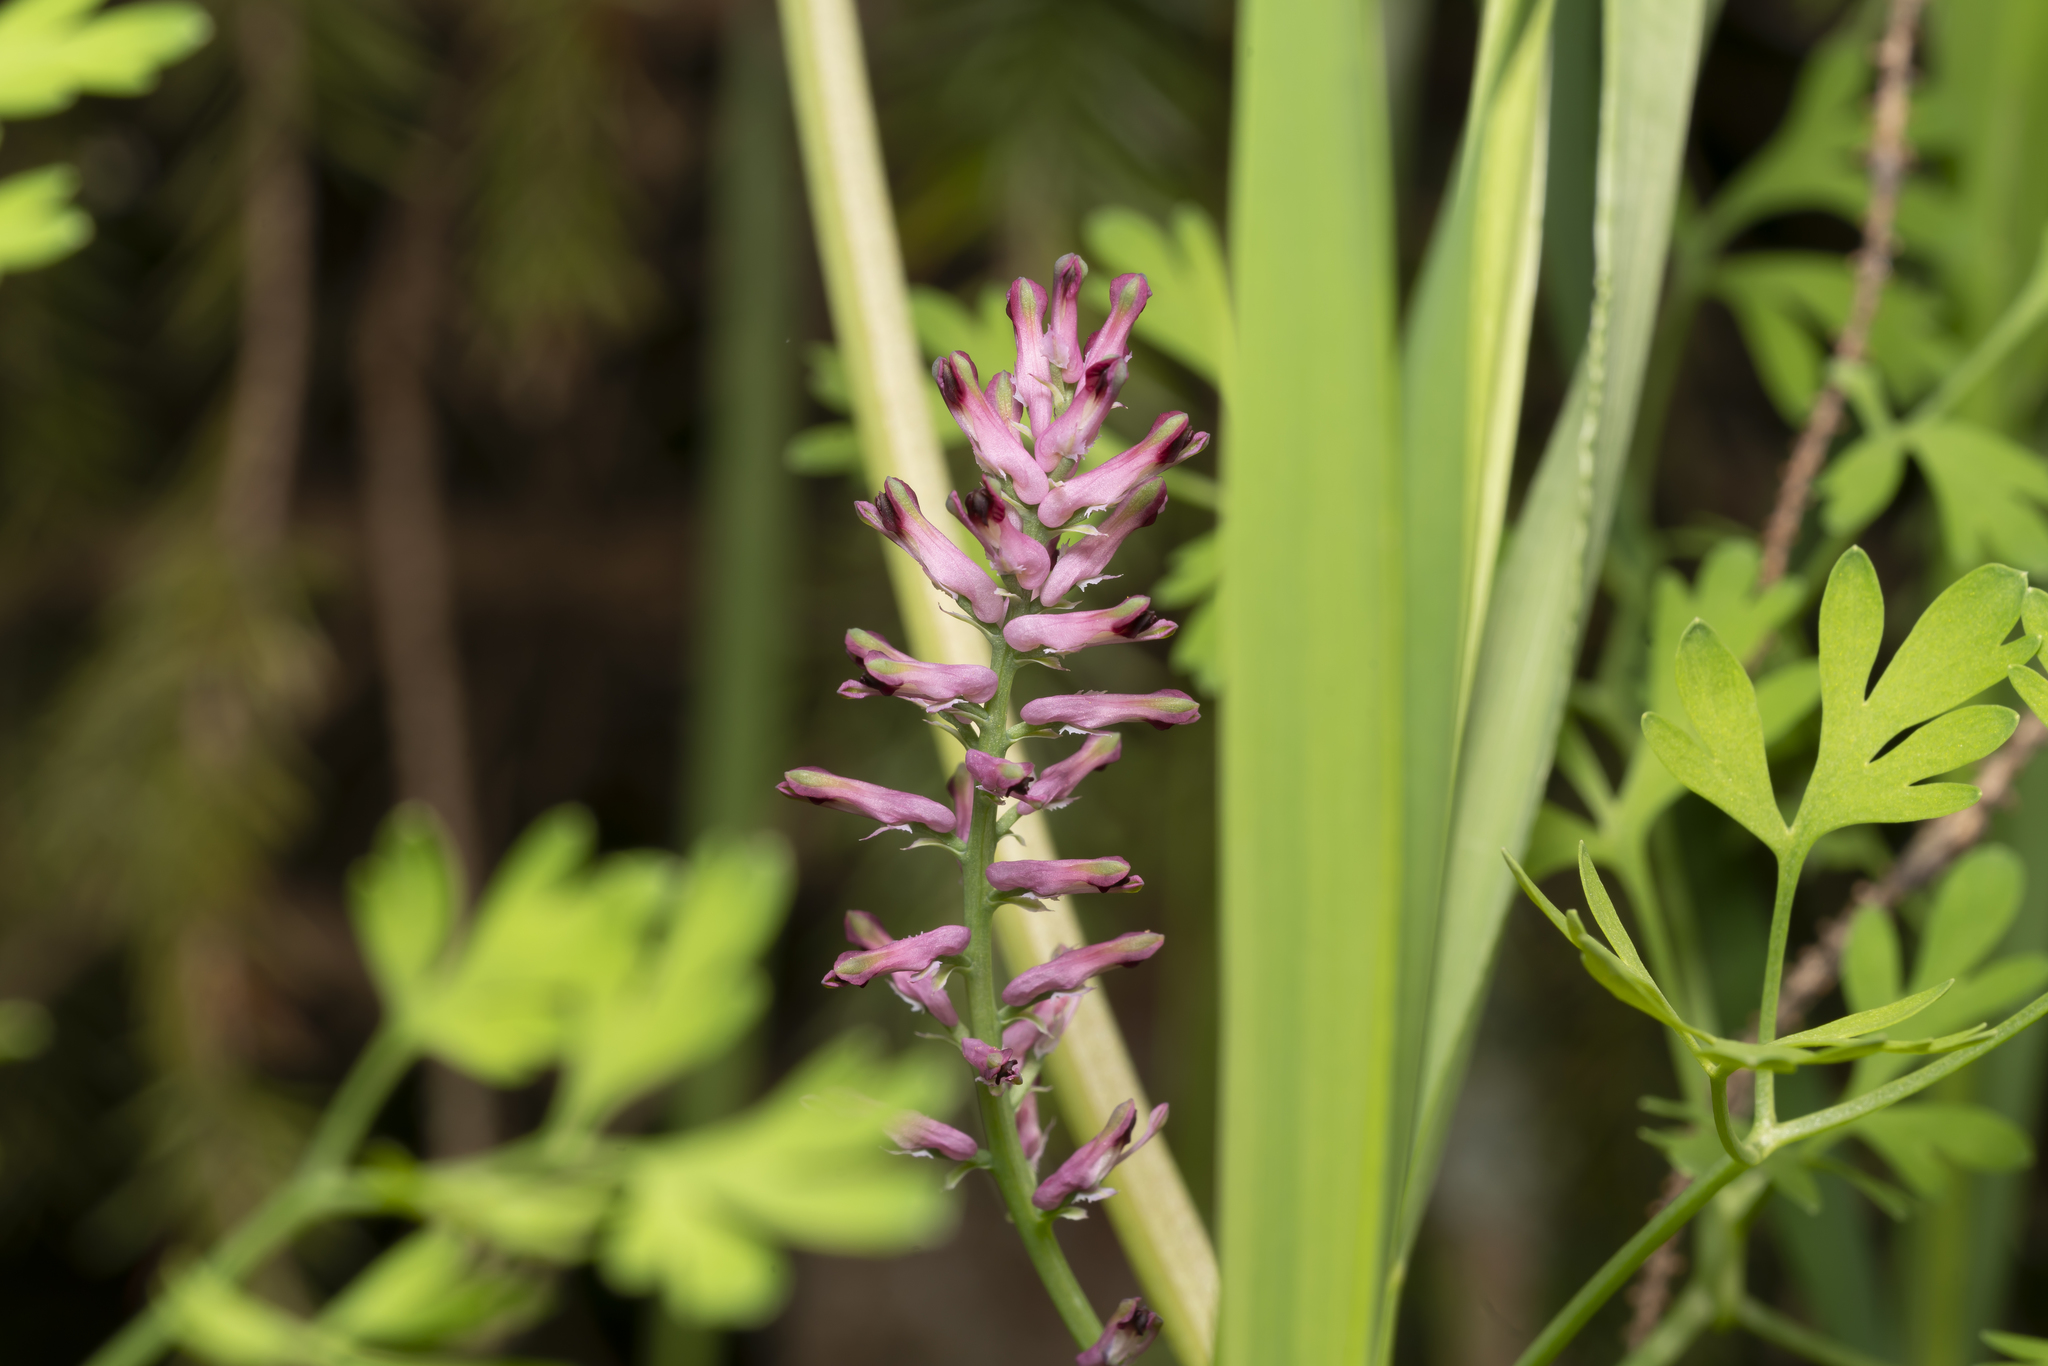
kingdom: Plantae
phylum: Tracheophyta
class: Magnoliopsida
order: Ranunculales
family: Papaveraceae
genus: Fumaria
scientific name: Fumaria officinalis
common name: Common fumitory
